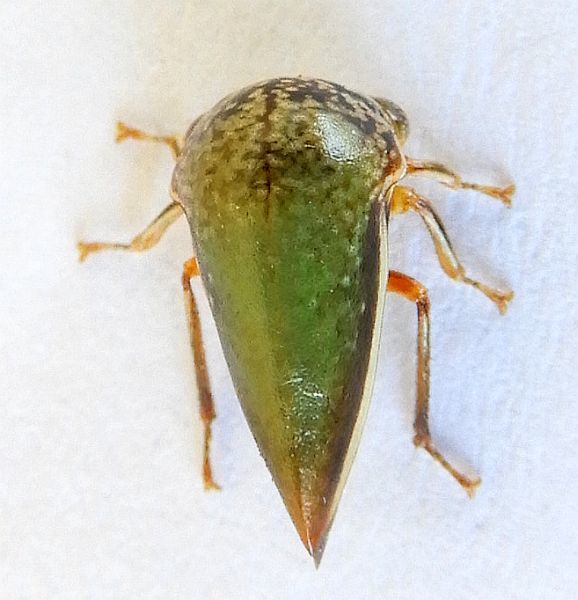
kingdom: Animalia
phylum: Arthropoda
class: Insecta
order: Hemiptera
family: Membracidae
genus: Stictopelta
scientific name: Stictopelta marmorata
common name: Treehopper
